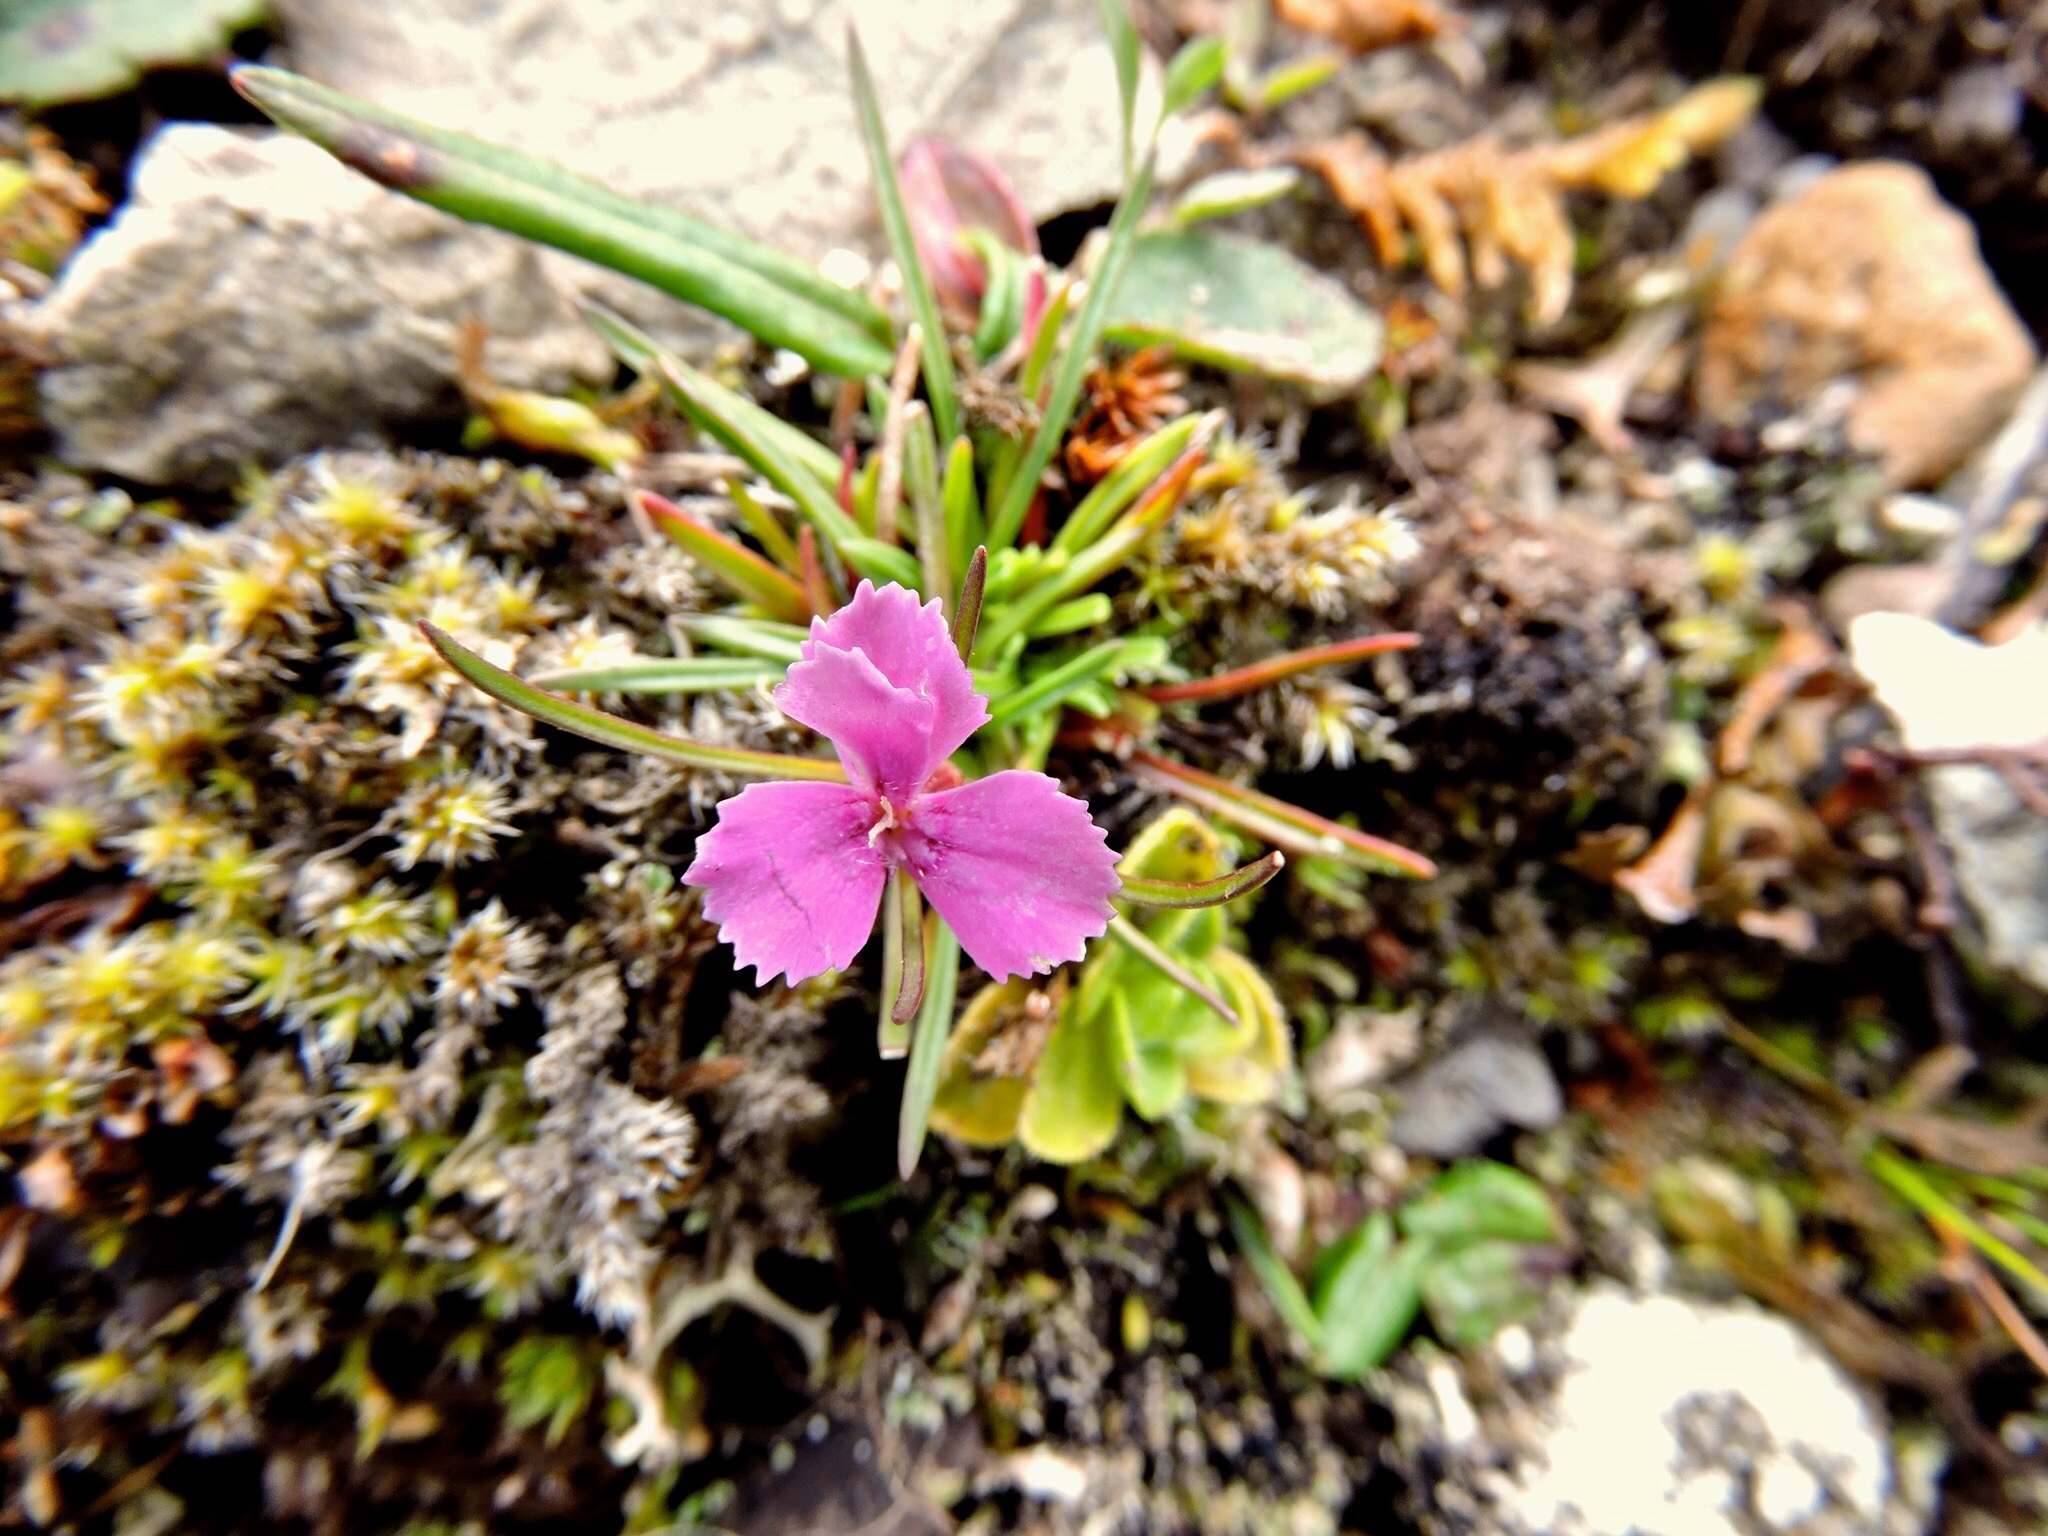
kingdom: Plantae
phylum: Tracheophyta
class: Magnoliopsida
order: Caryophyllales
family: Caryophyllaceae
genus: Dianthus
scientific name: Dianthus glacialis
